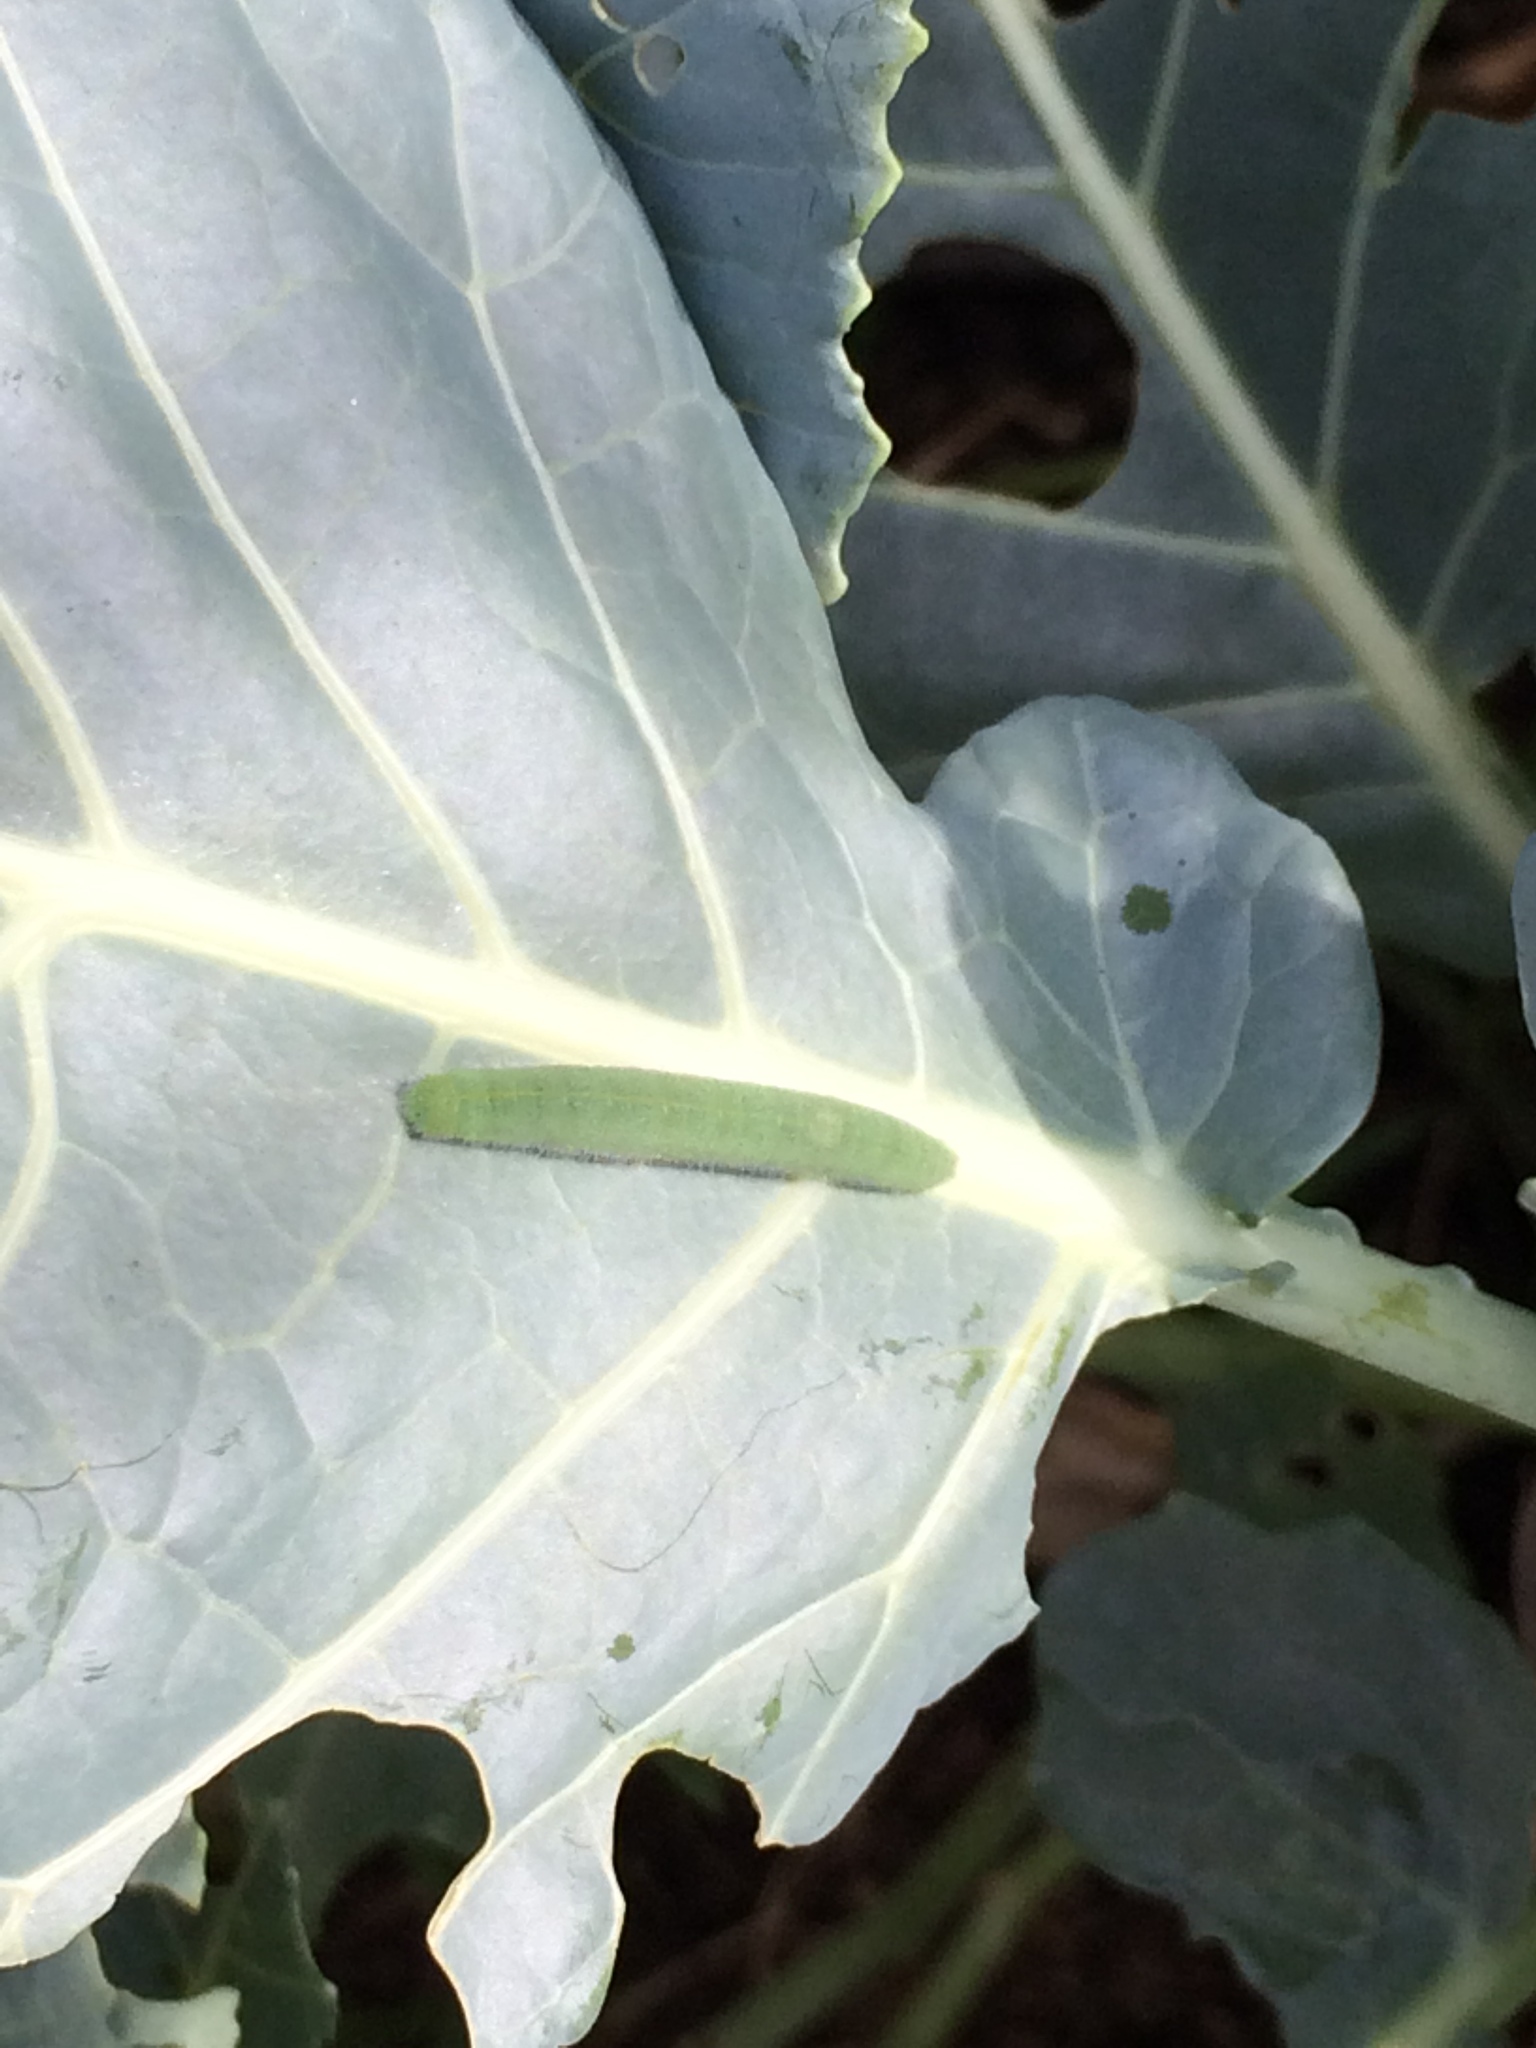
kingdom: Animalia
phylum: Arthropoda
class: Insecta
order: Lepidoptera
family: Pieridae
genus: Pieris
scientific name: Pieris rapae
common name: Small white
